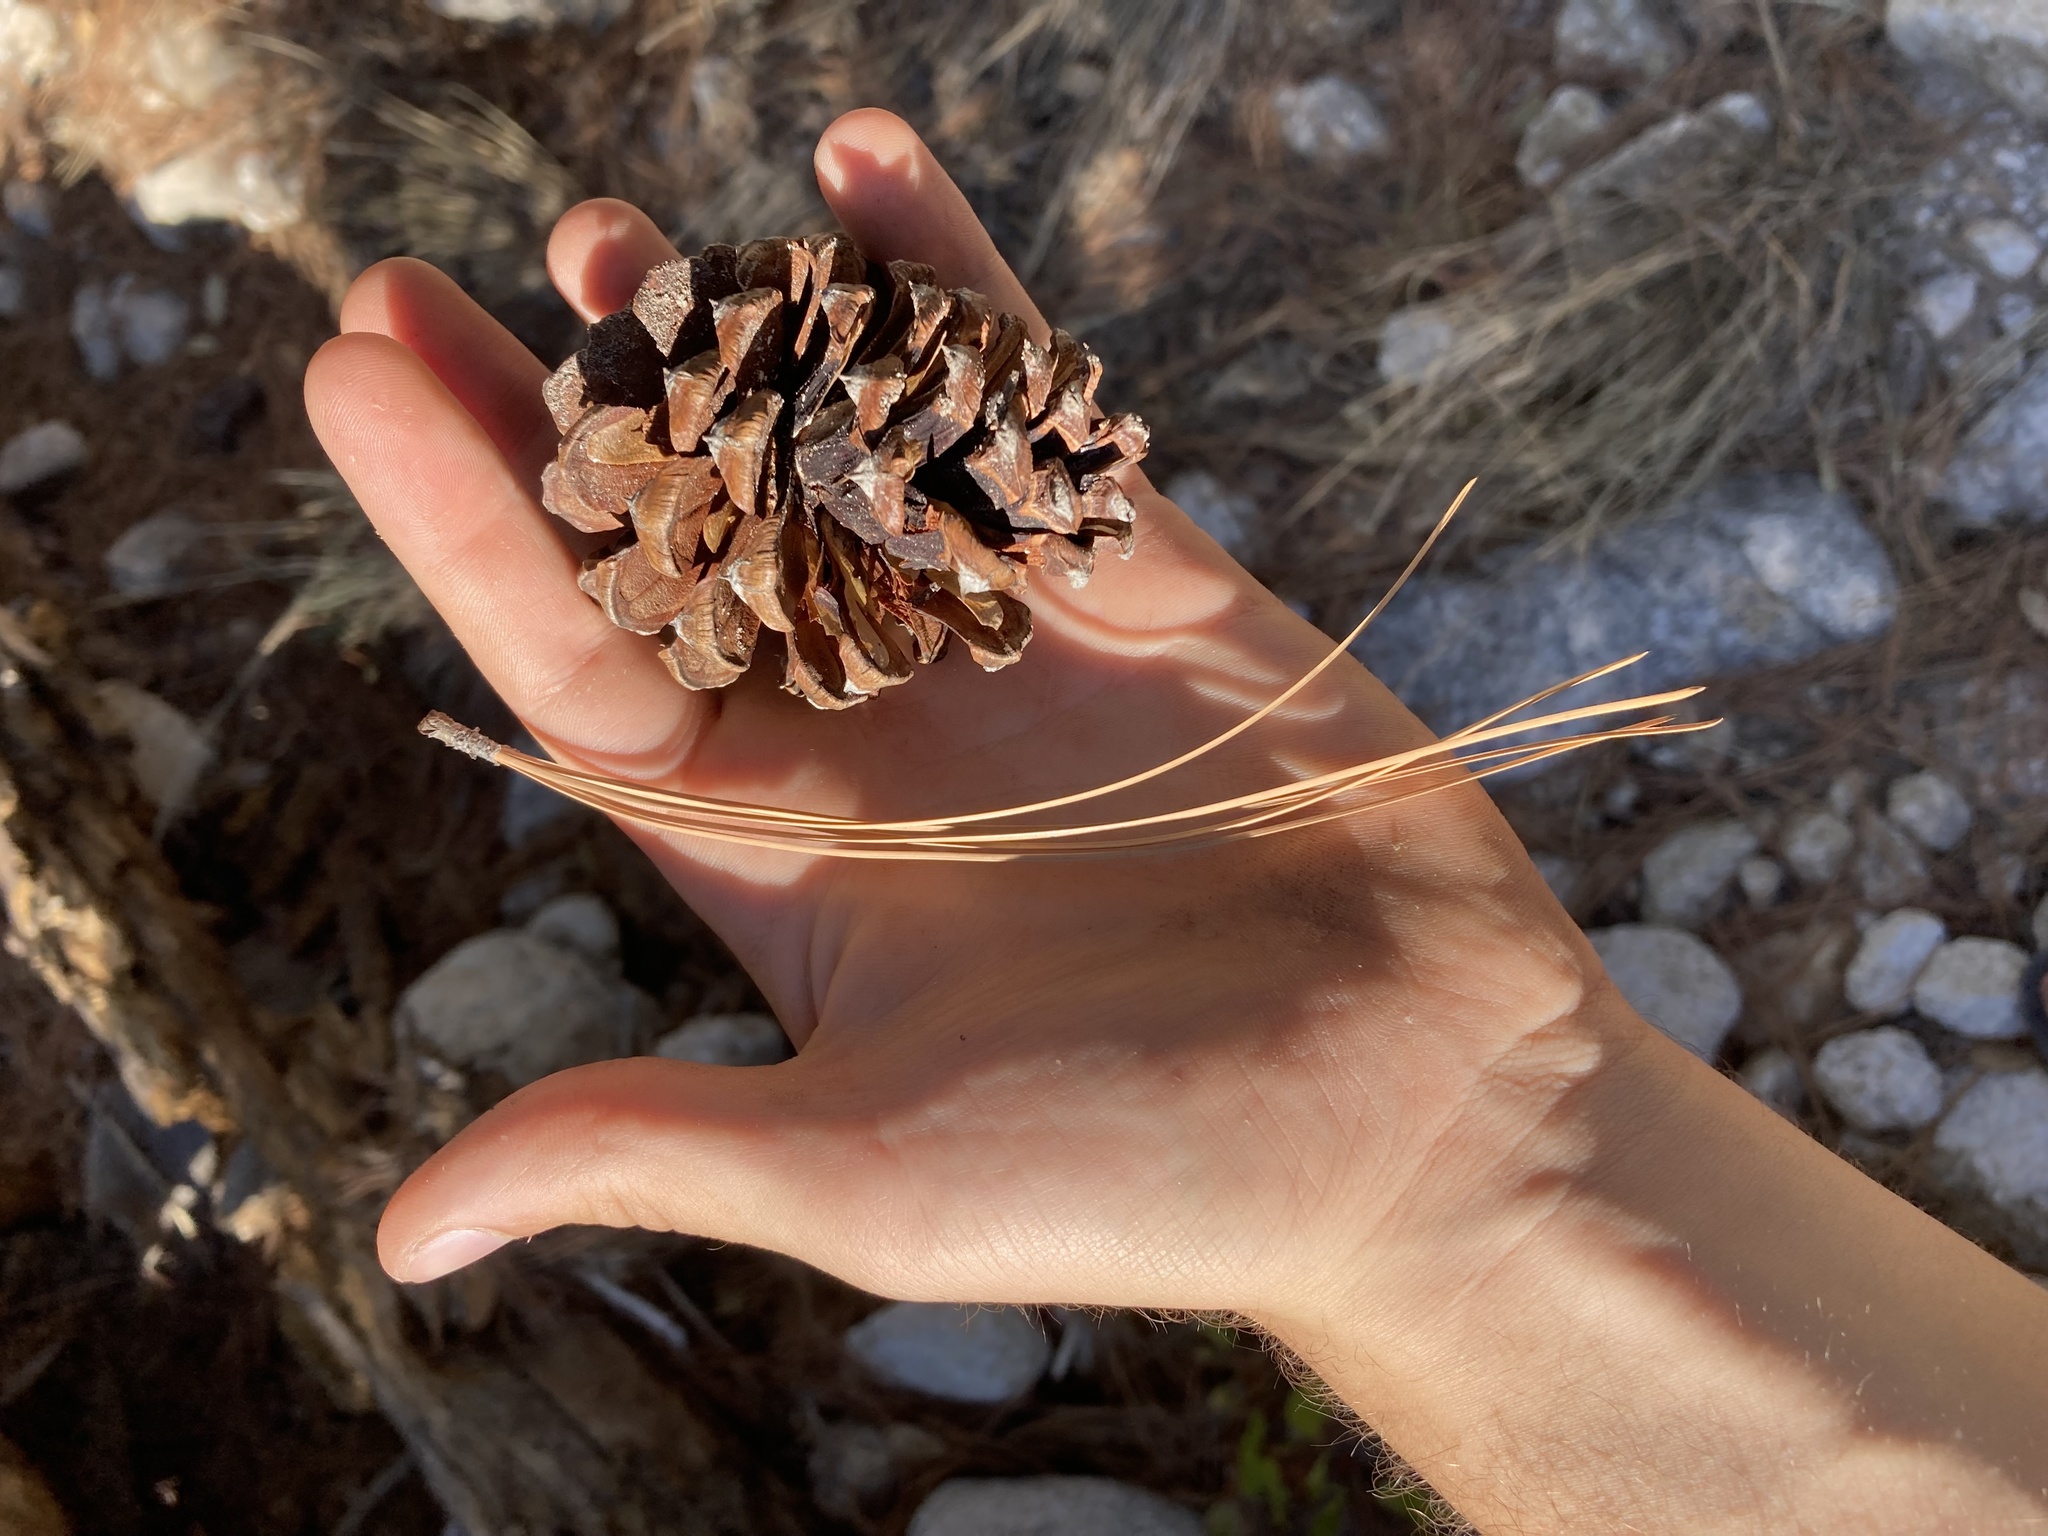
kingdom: Plantae
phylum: Tracheophyta
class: Pinopsida
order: Pinales
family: Pinaceae
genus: Pinus
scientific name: Pinus arizonica
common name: Arizona pine
